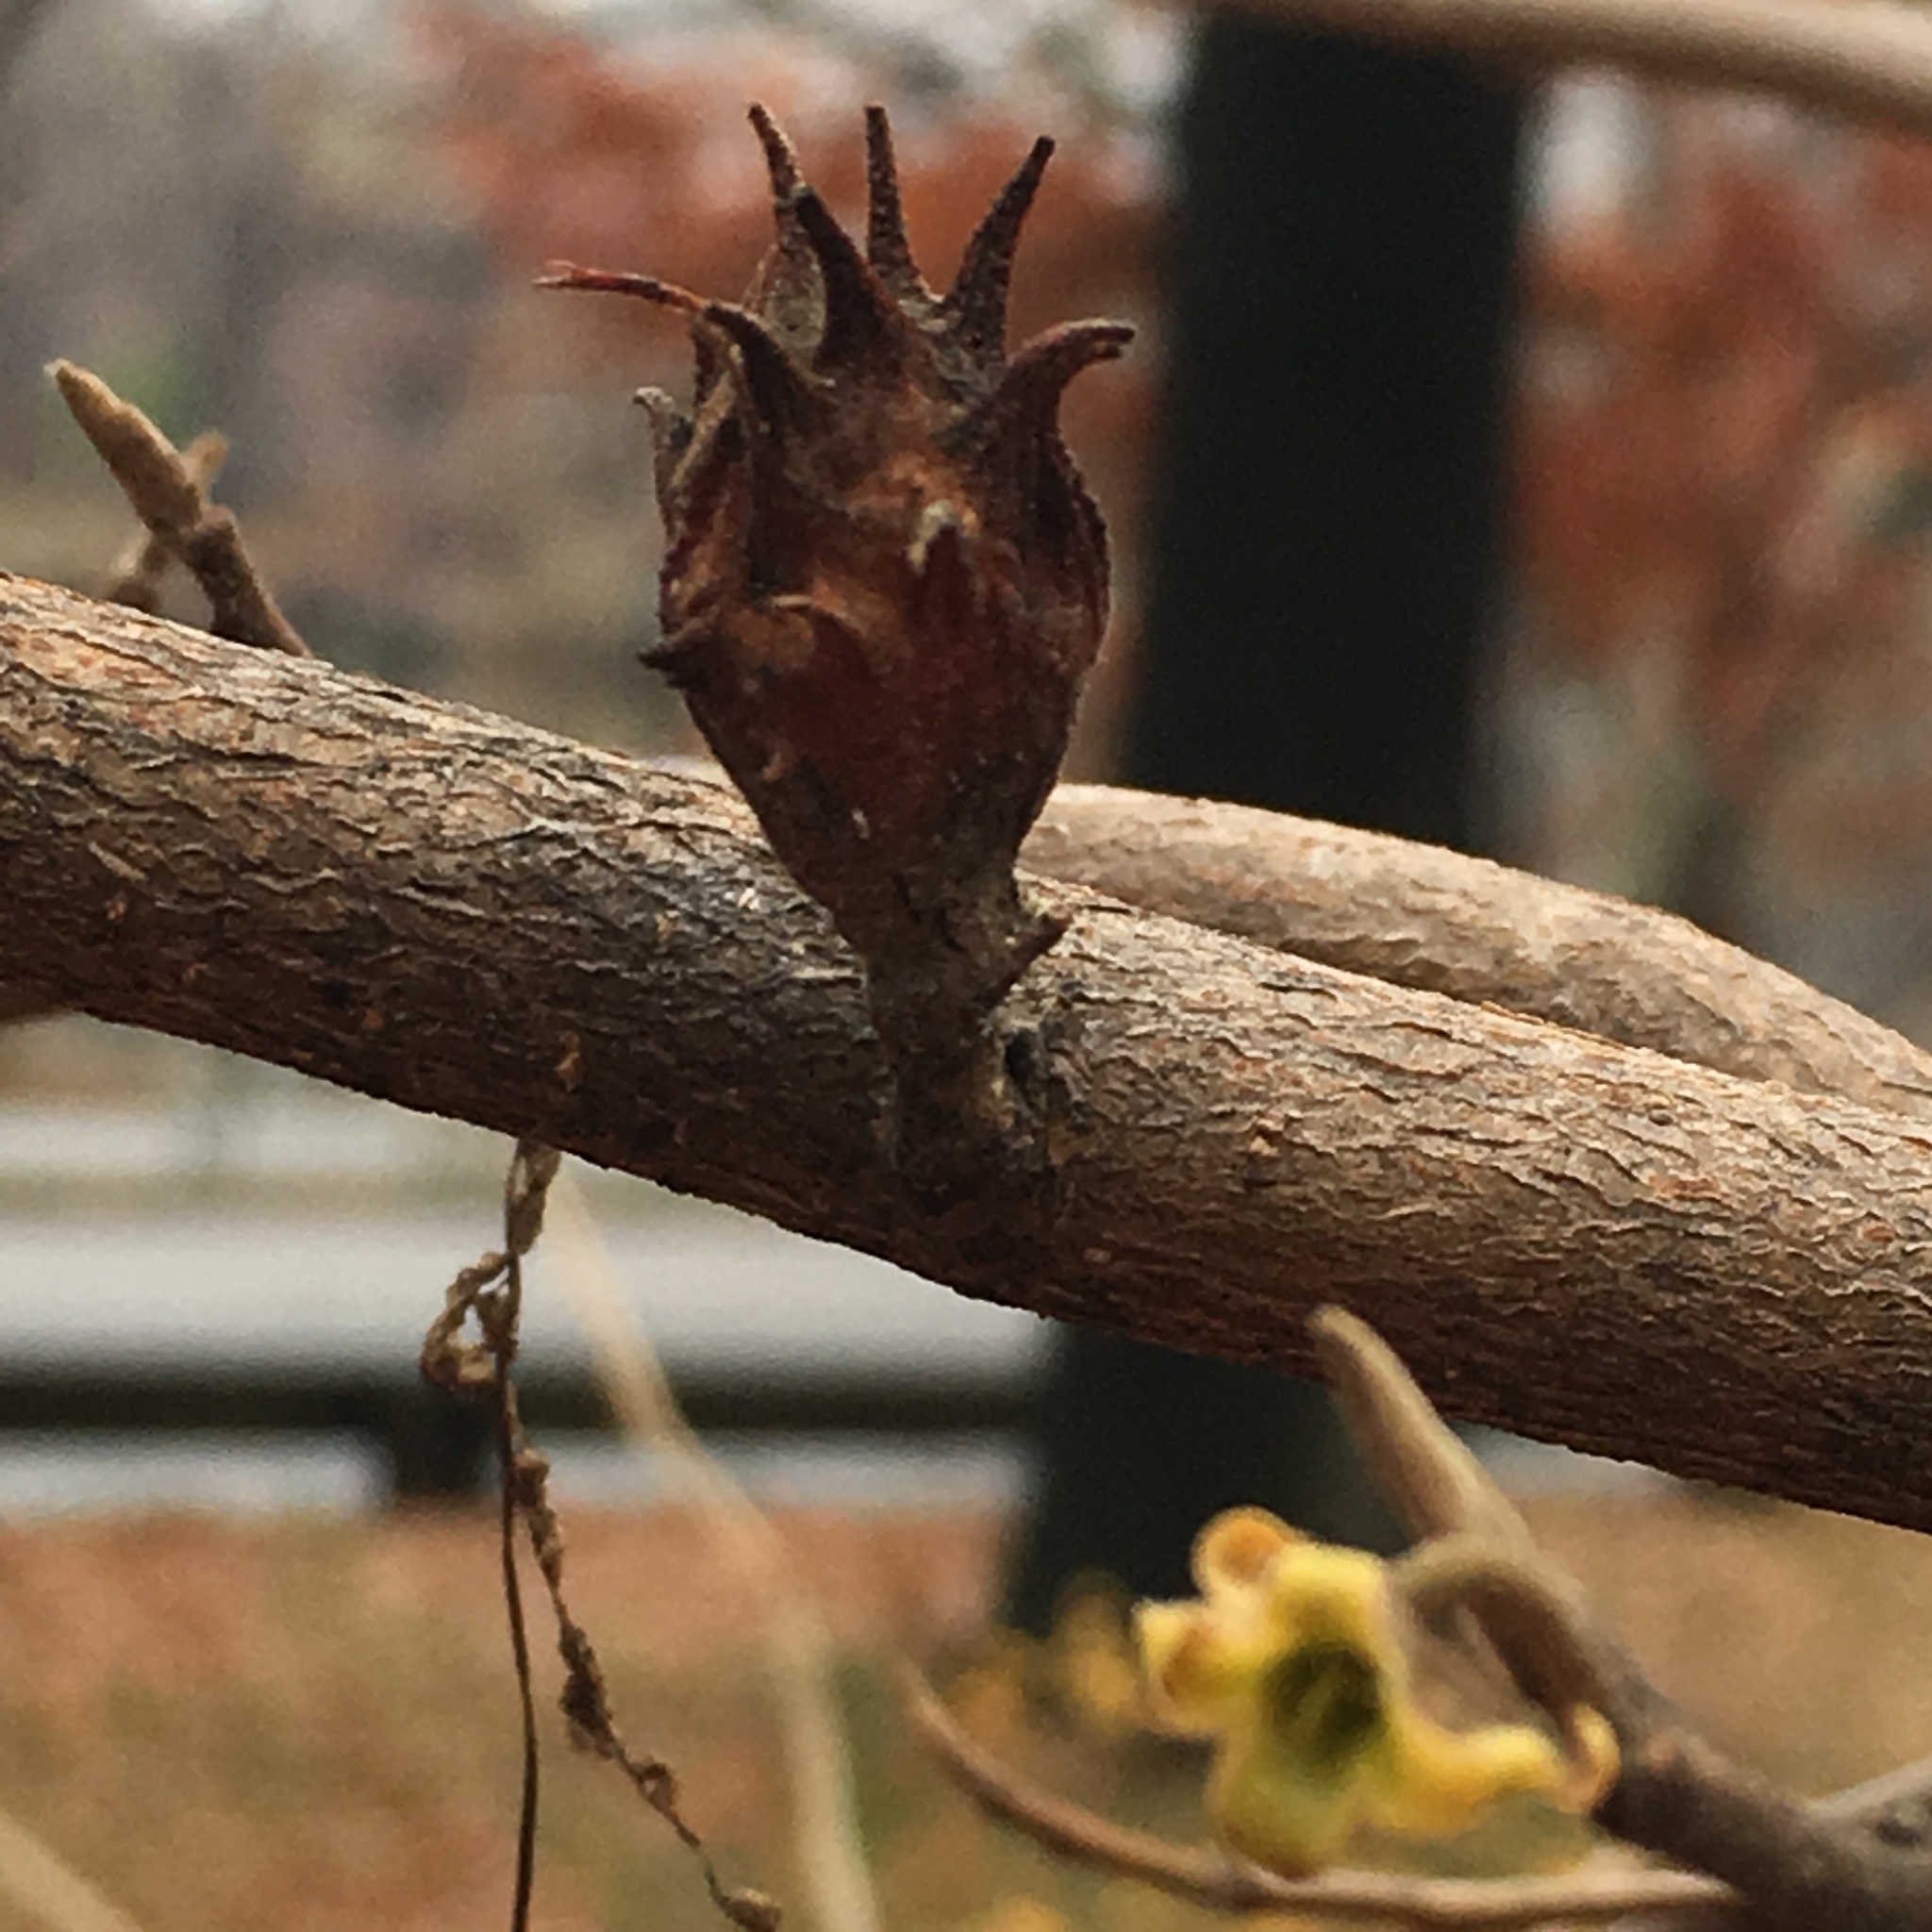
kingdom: Animalia
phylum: Arthropoda
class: Insecta
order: Hemiptera
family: Aphididae
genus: Hamamelistes
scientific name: Hamamelistes spinosus
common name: Witch hazel gall aphid
